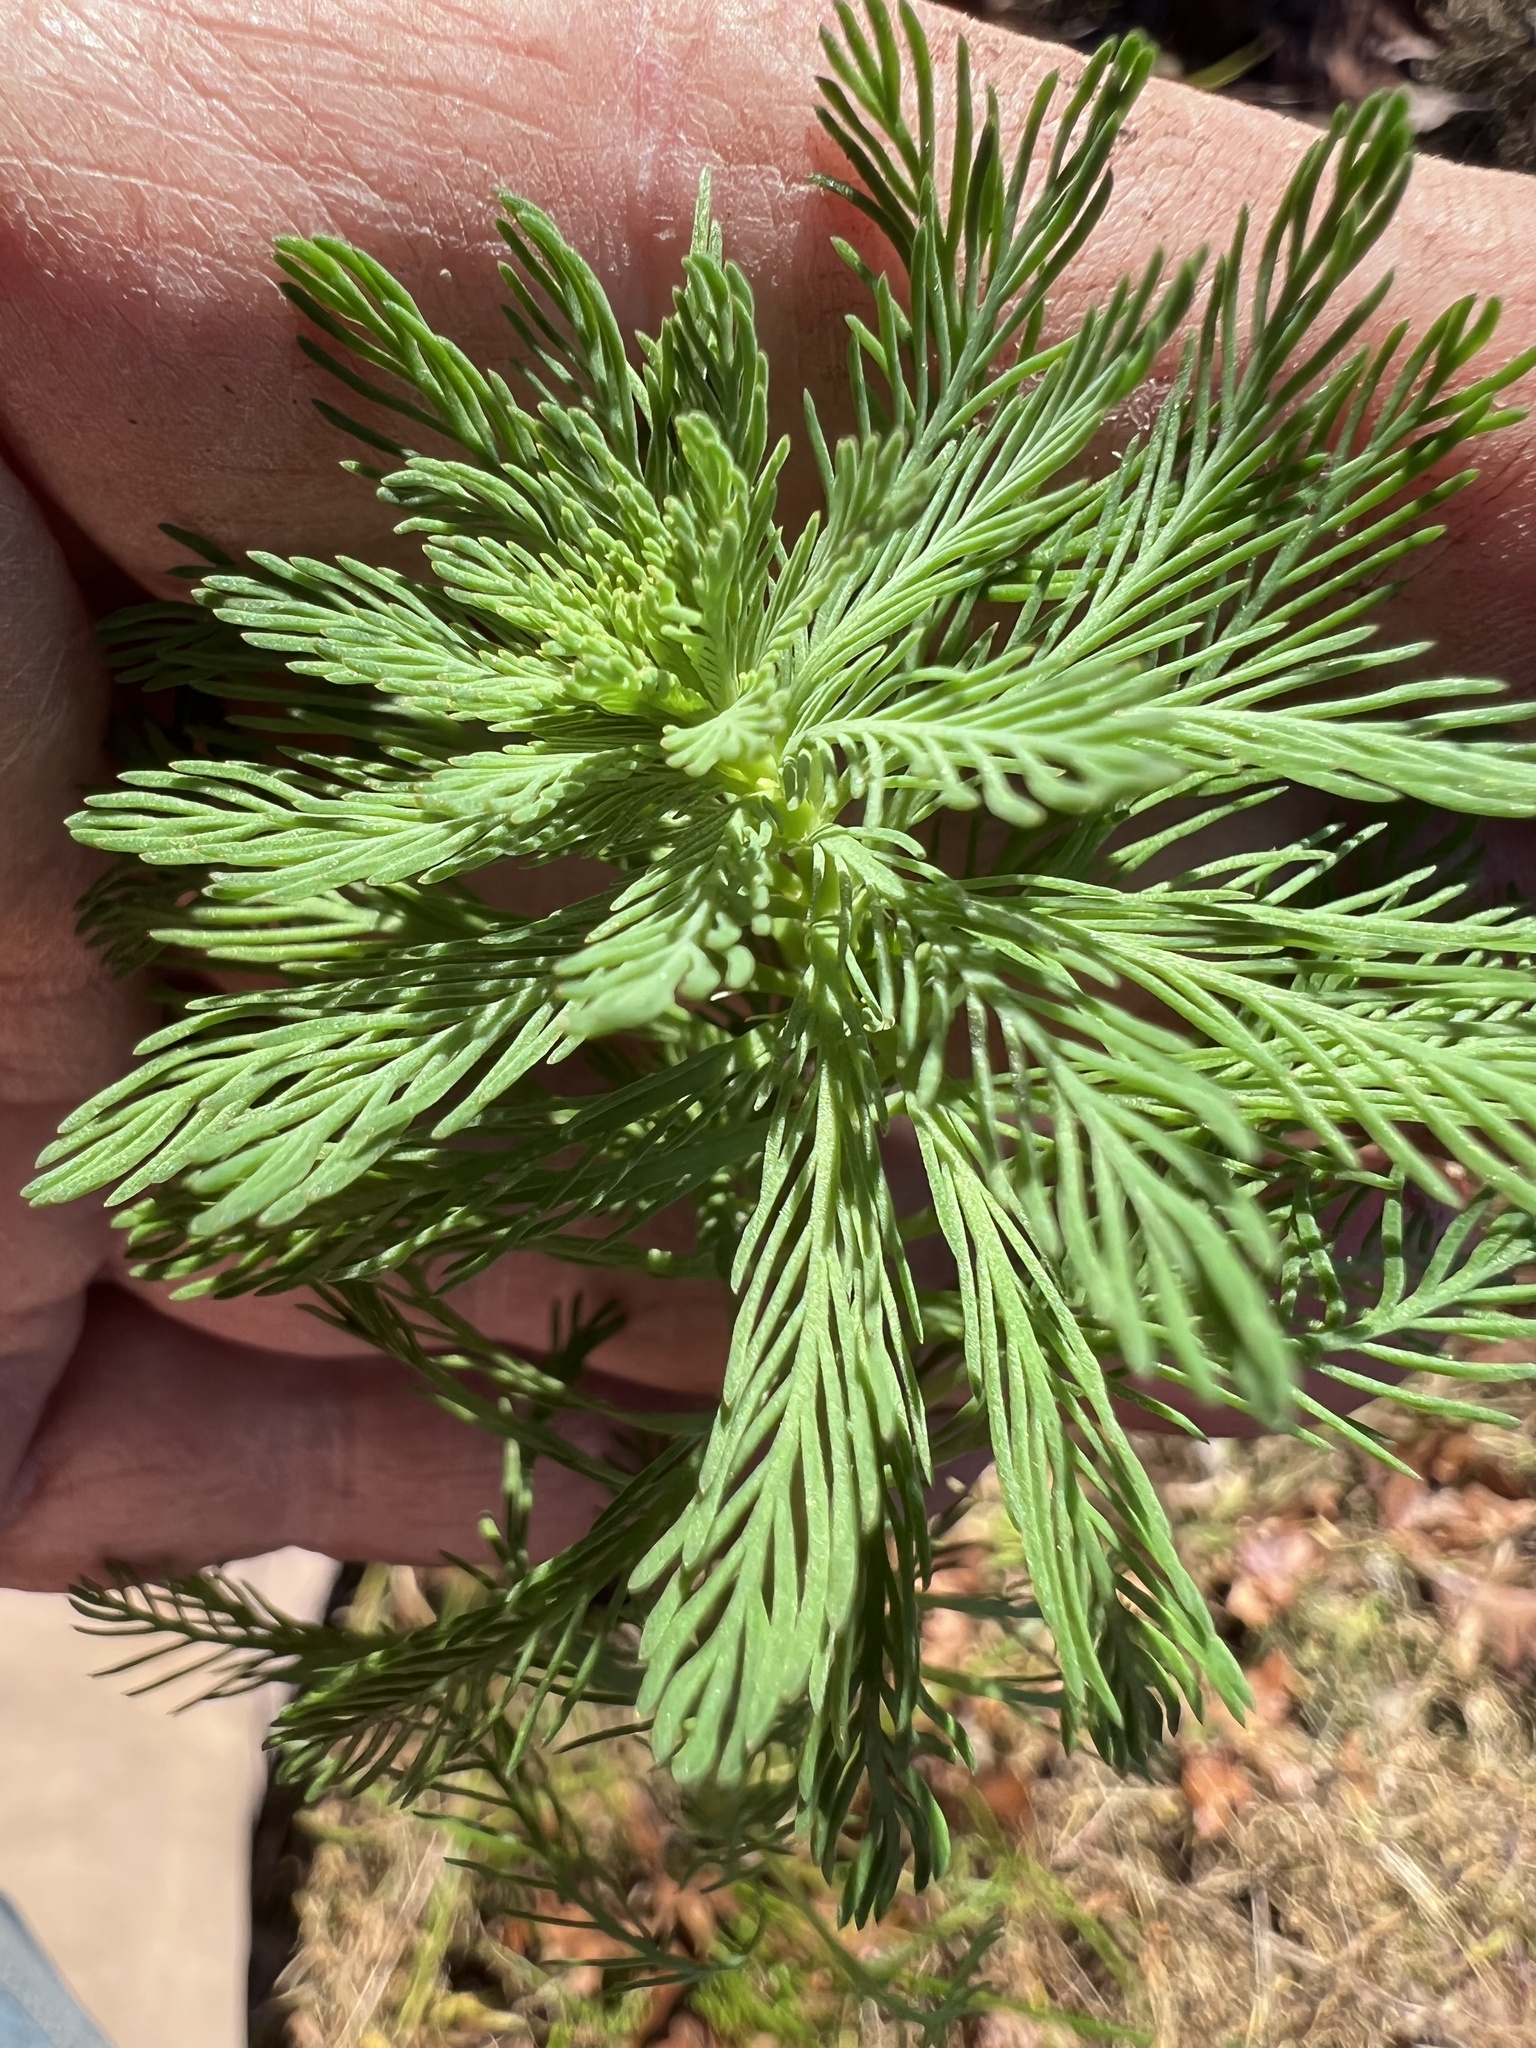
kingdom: Plantae
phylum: Tracheophyta
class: Magnoliopsida
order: Saxifragales
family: Haloragaceae
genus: Myriophyllum
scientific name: Myriophyllum aquaticum
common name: Parrot's feather
